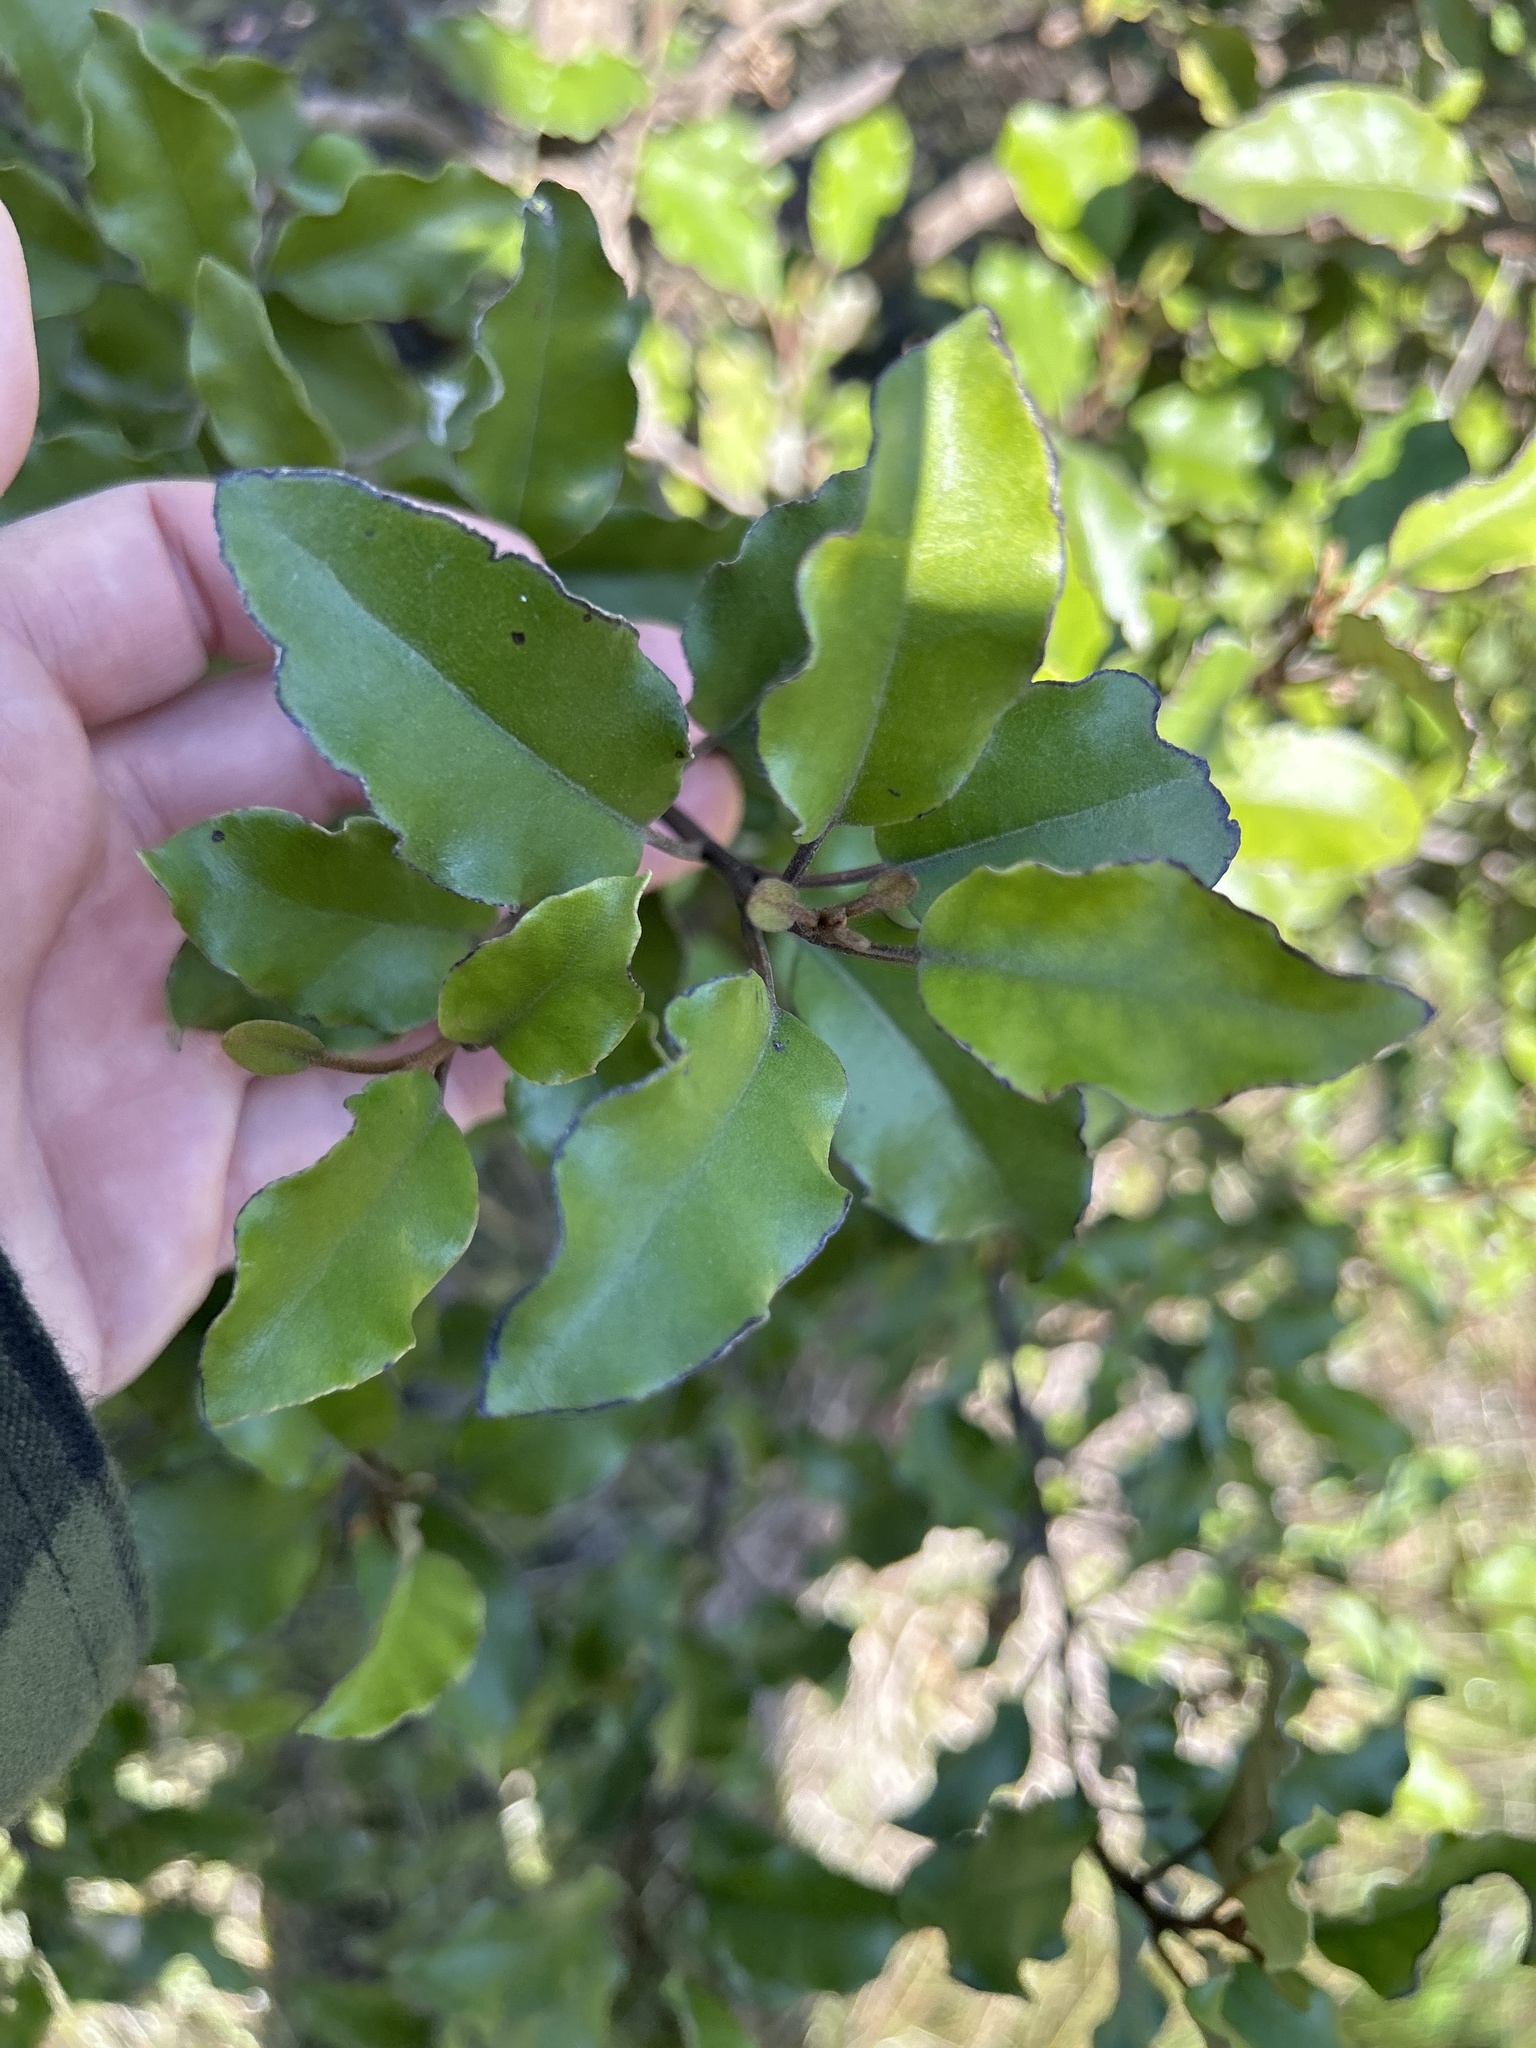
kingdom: Plantae
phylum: Tracheophyta
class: Magnoliopsida
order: Asterales
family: Asteraceae
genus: Olearia
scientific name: Olearia paniculata
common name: Akiraho
